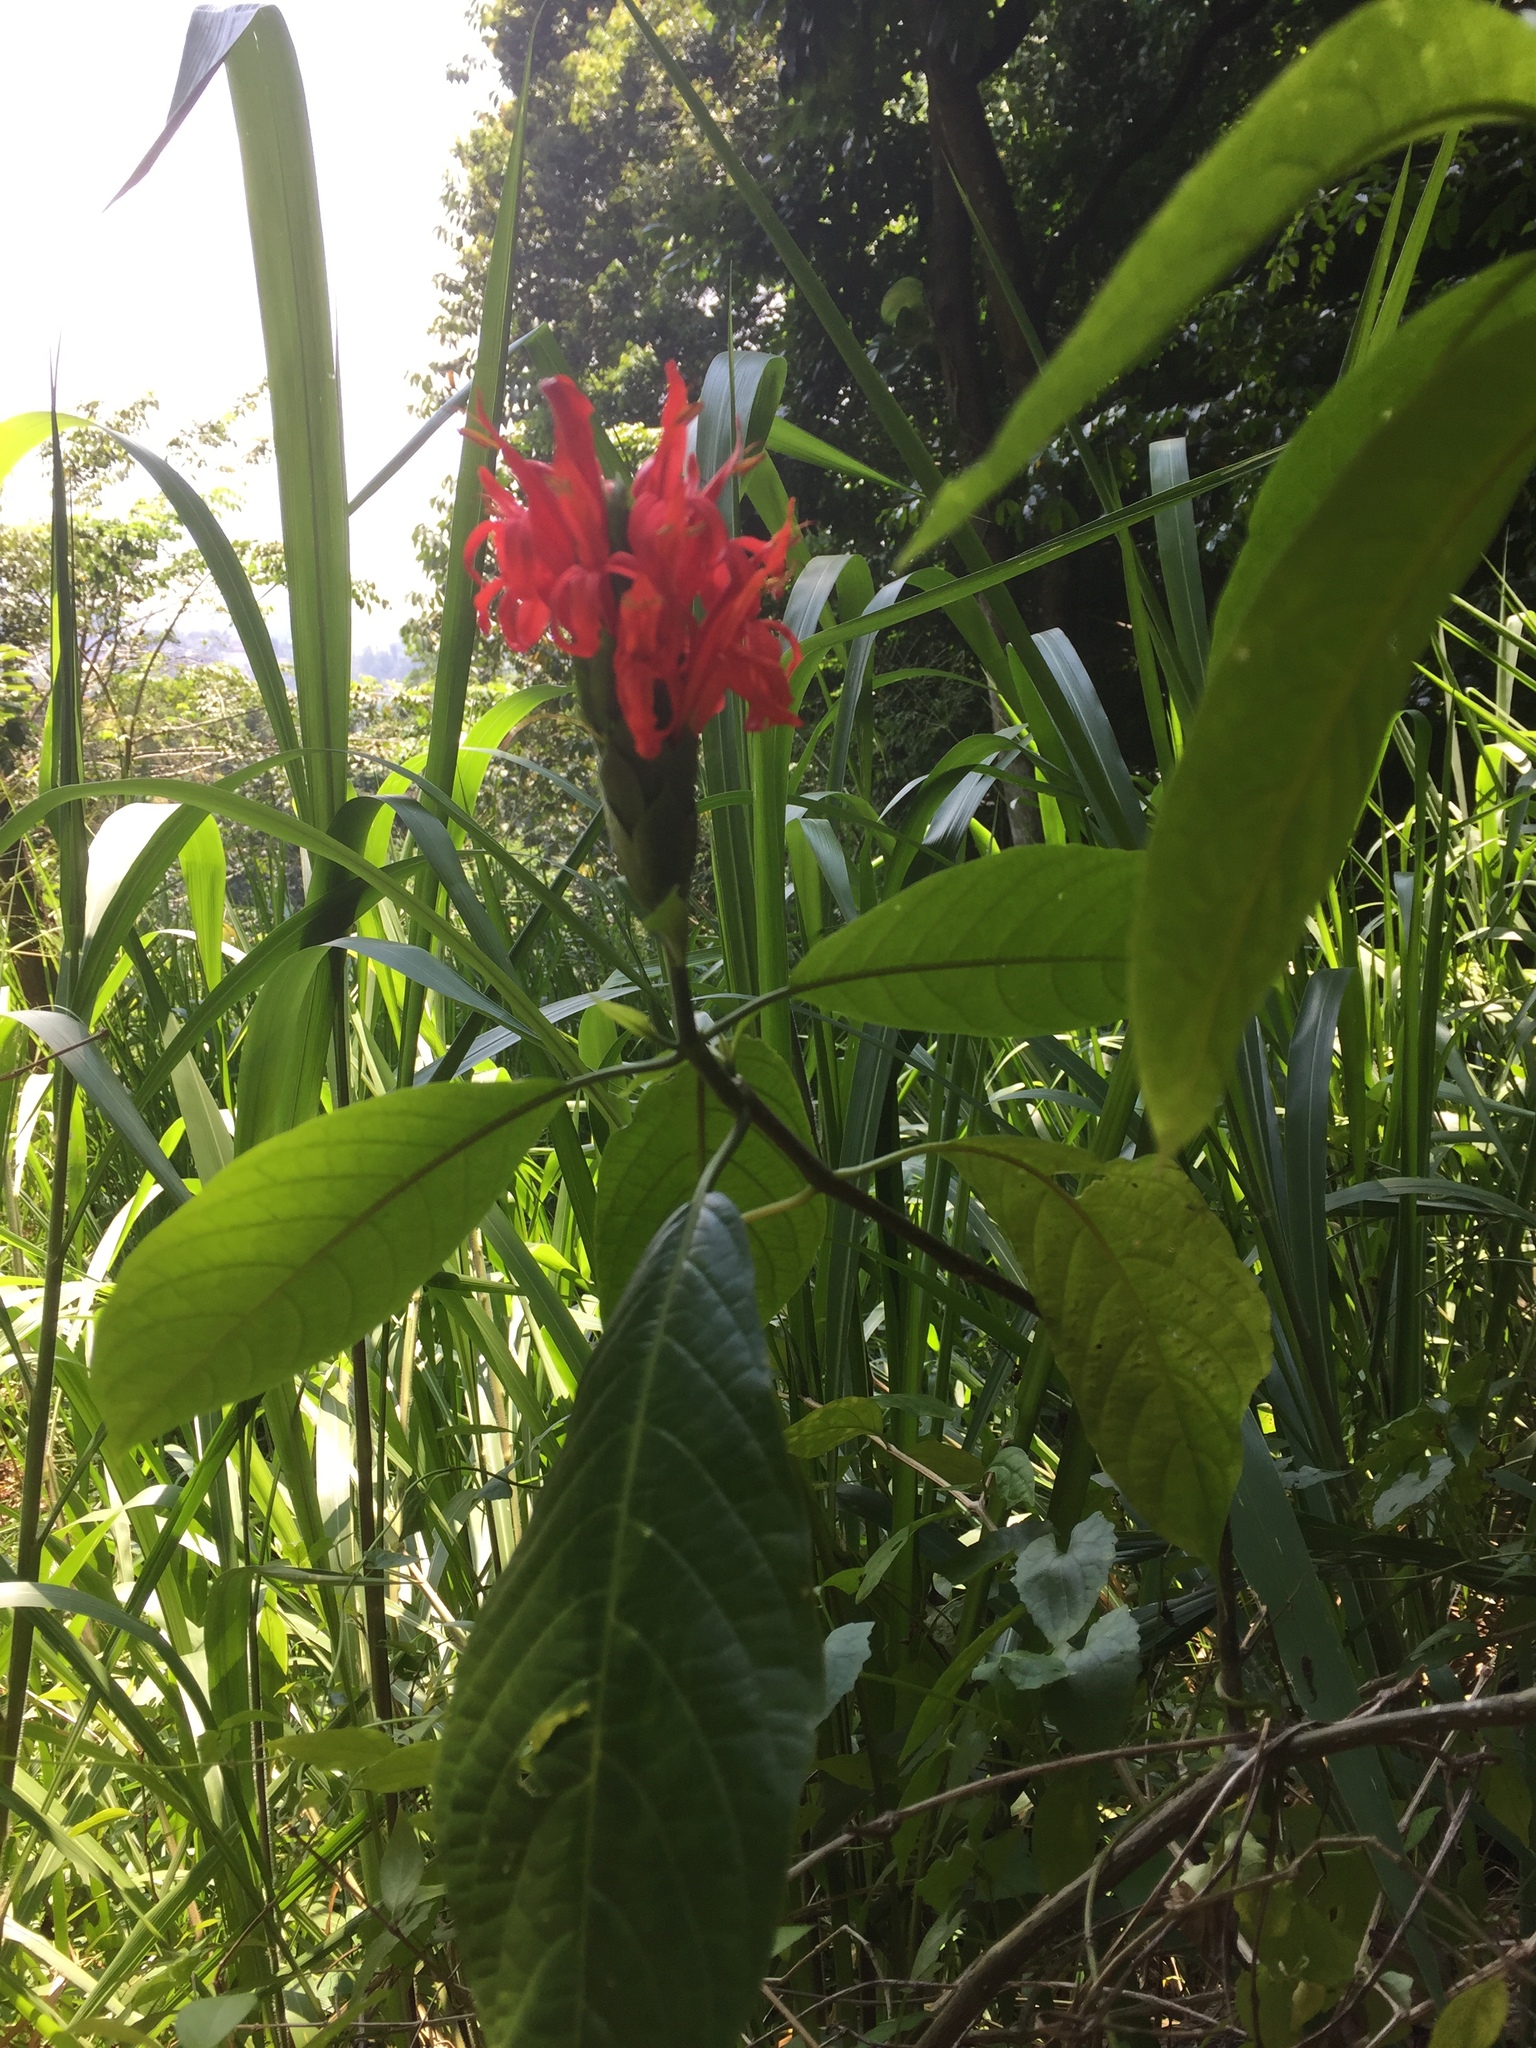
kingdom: Plantae
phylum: Tracheophyta
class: Magnoliopsida
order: Lamiales
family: Acanthaceae
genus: Pachystachys
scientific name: Pachystachys spicata
